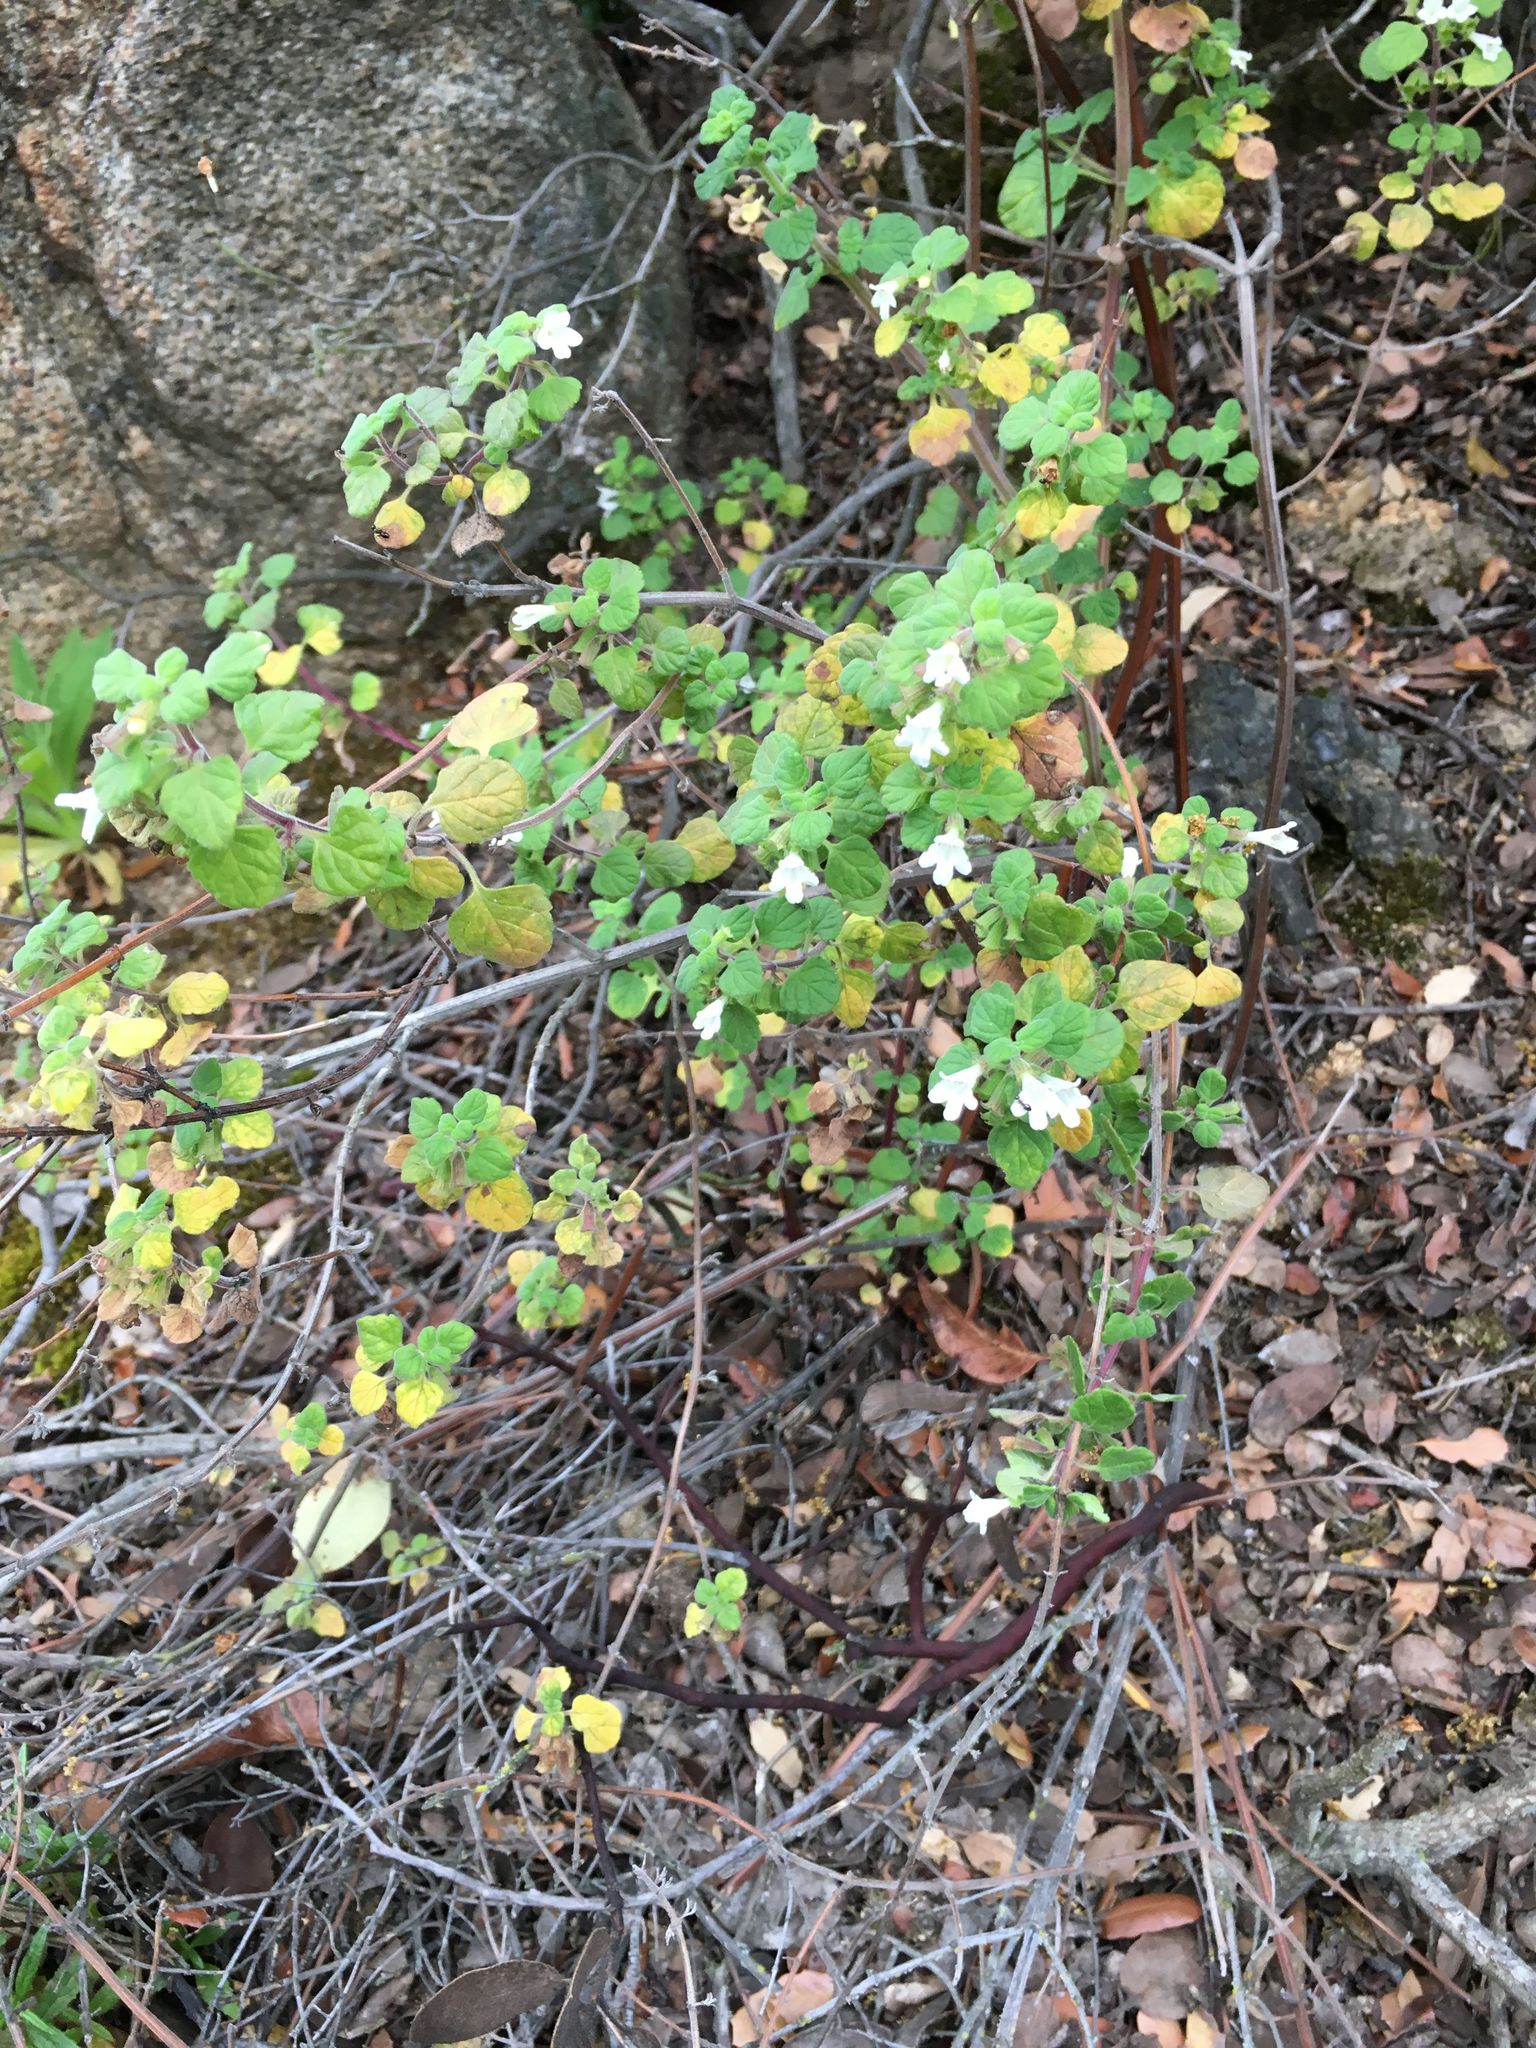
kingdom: Plantae
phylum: Tracheophyta
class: Magnoliopsida
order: Lamiales
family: Lamiaceae
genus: Clinopodium
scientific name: Clinopodium chandleri
